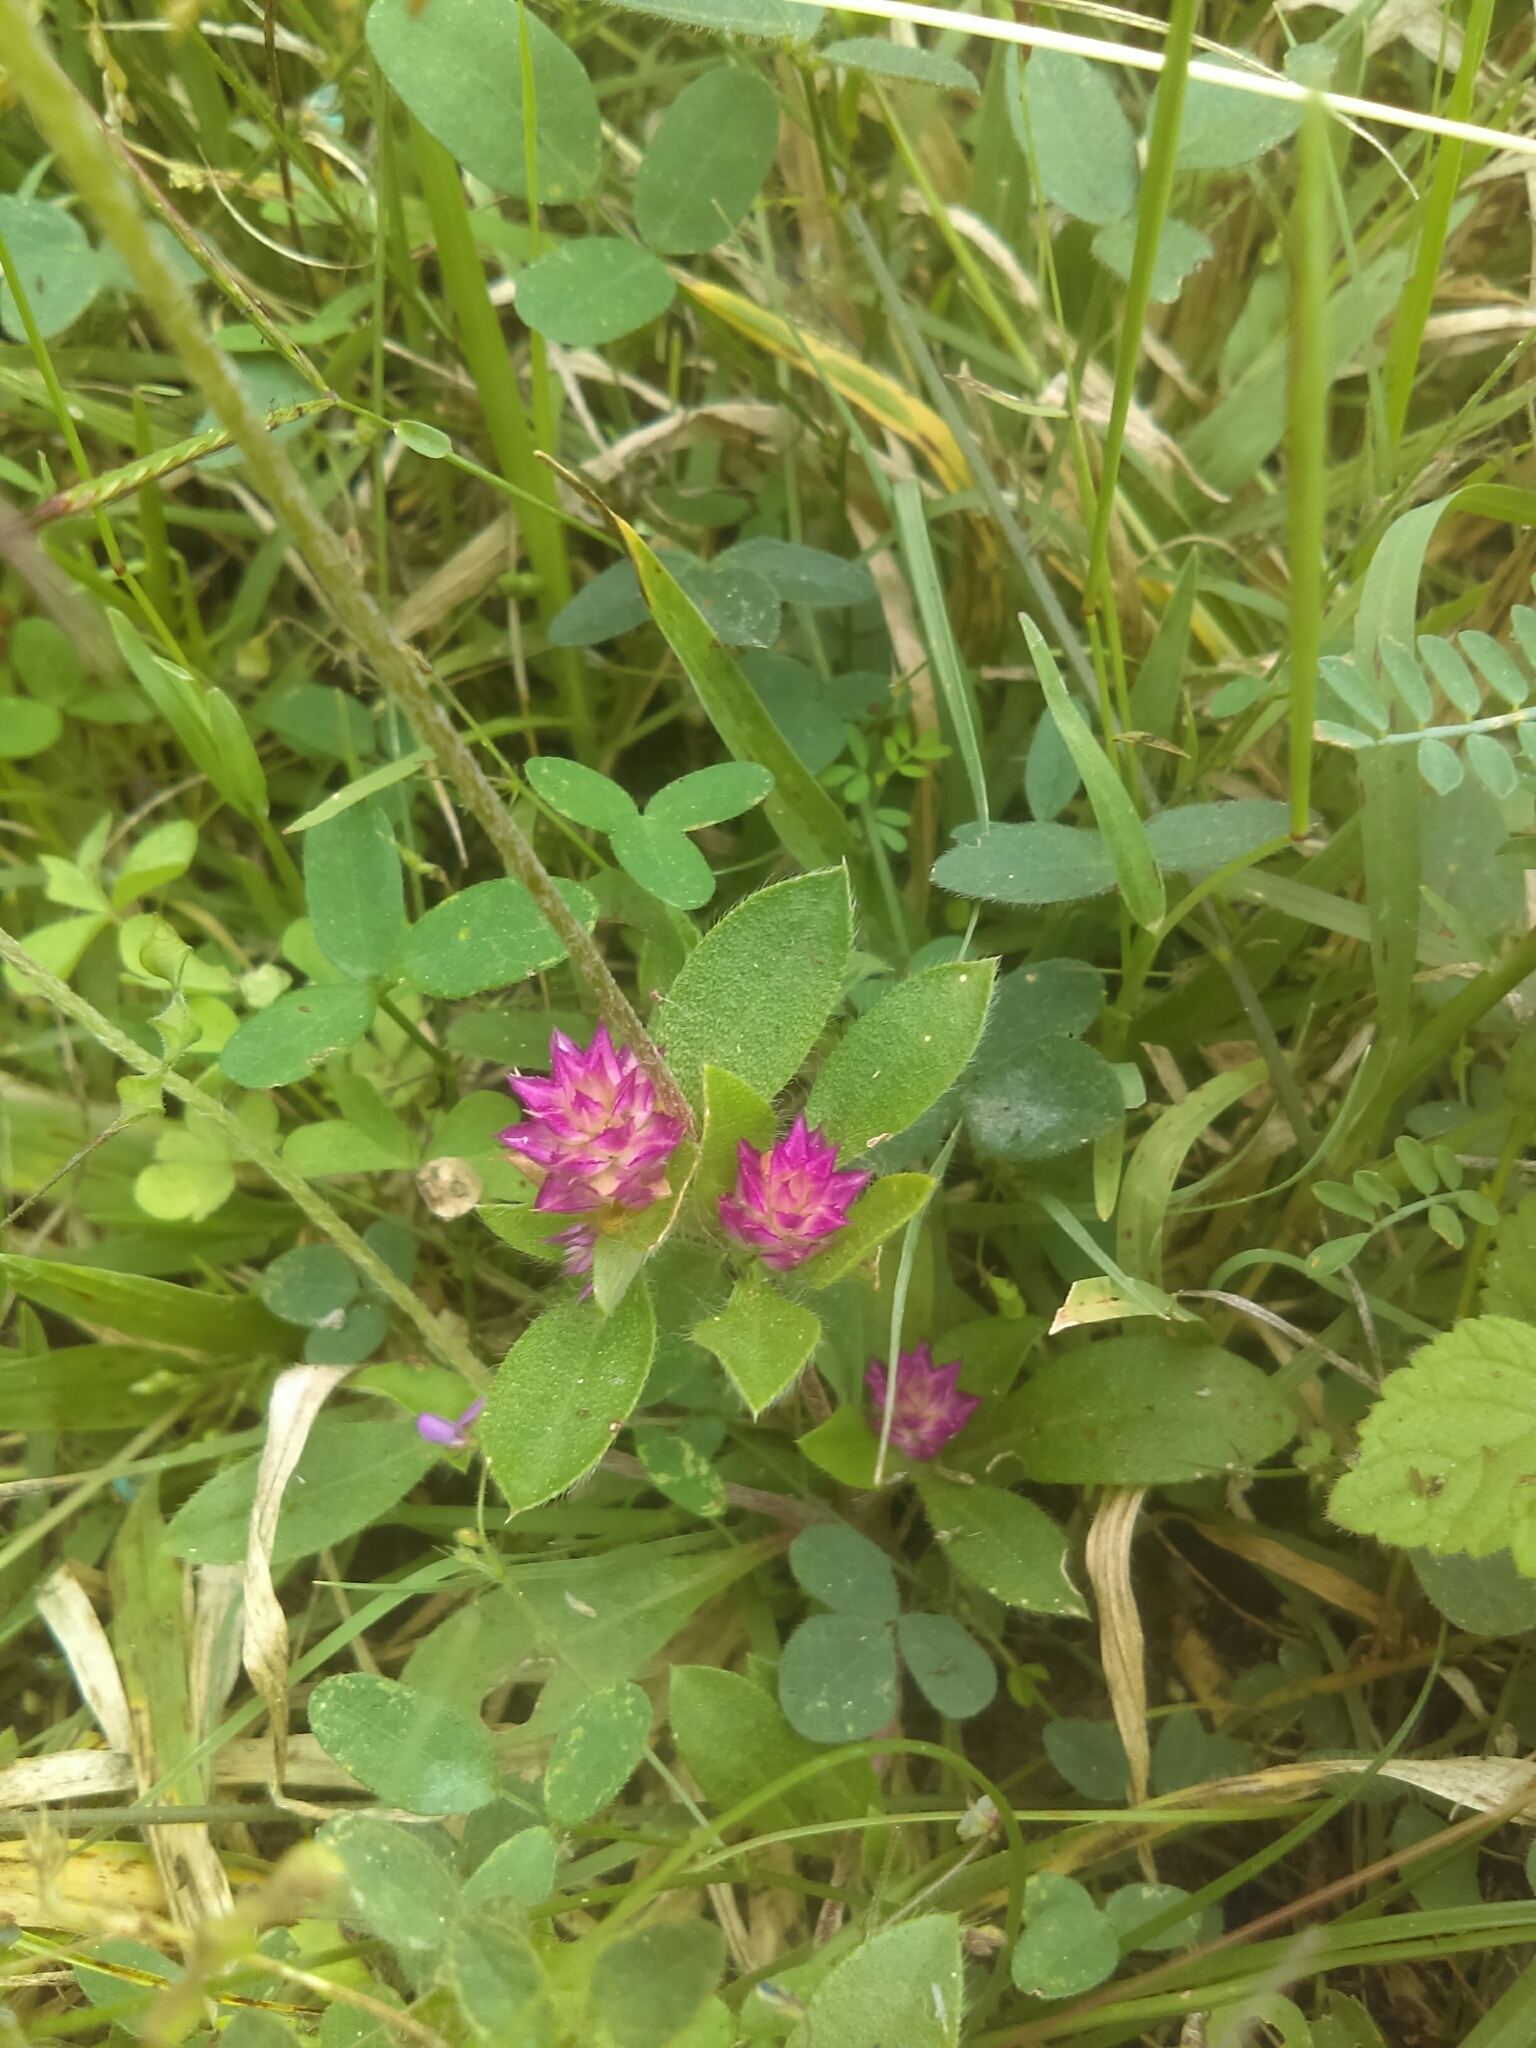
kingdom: Plantae
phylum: Tracheophyta
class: Magnoliopsida
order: Caryophyllales
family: Amaranthaceae
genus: Gomphrena
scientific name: Gomphrena serrata
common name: Arrasa con todo
